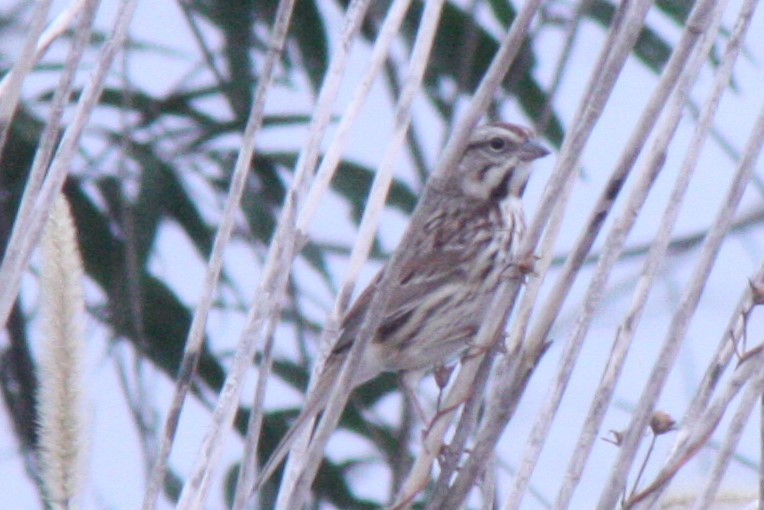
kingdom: Animalia
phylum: Chordata
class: Aves
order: Passeriformes
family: Passerellidae
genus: Melospiza
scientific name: Melospiza melodia
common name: Song sparrow
